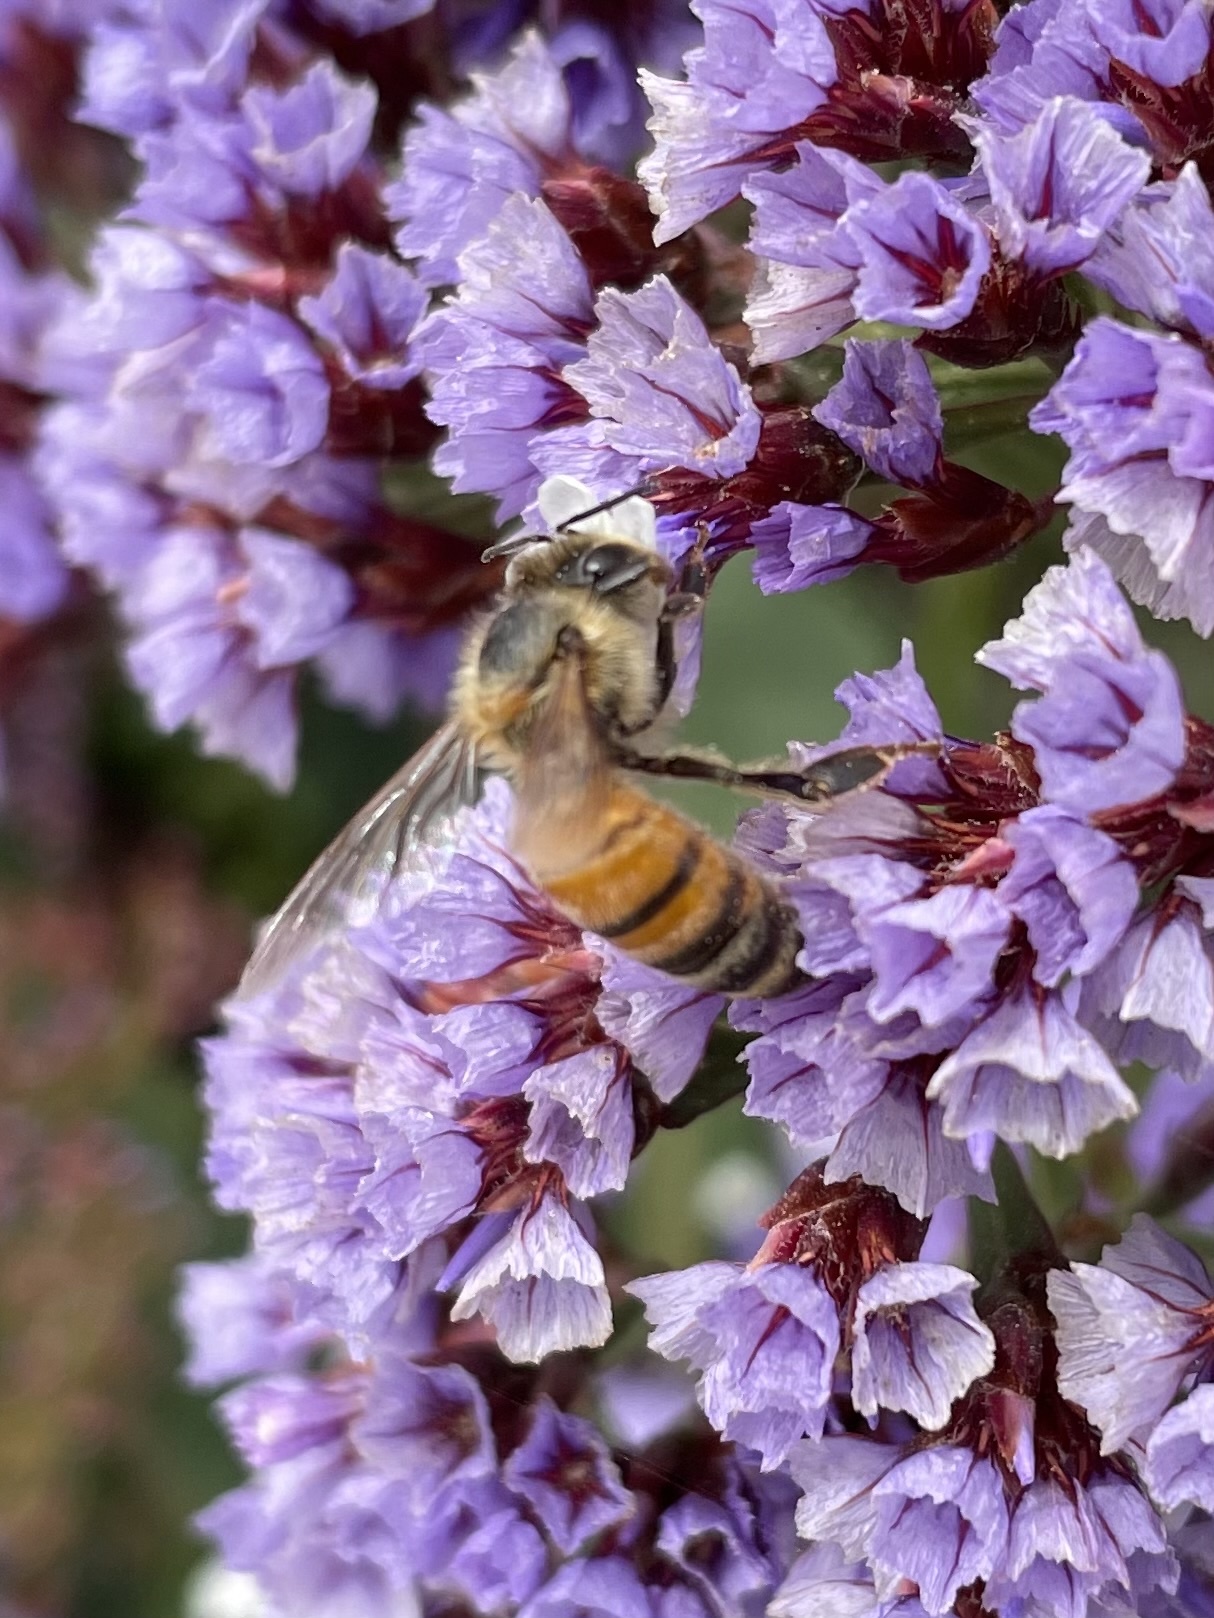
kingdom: Animalia
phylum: Arthropoda
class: Insecta
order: Hymenoptera
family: Apidae
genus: Apis
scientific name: Apis mellifera
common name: Honey bee
